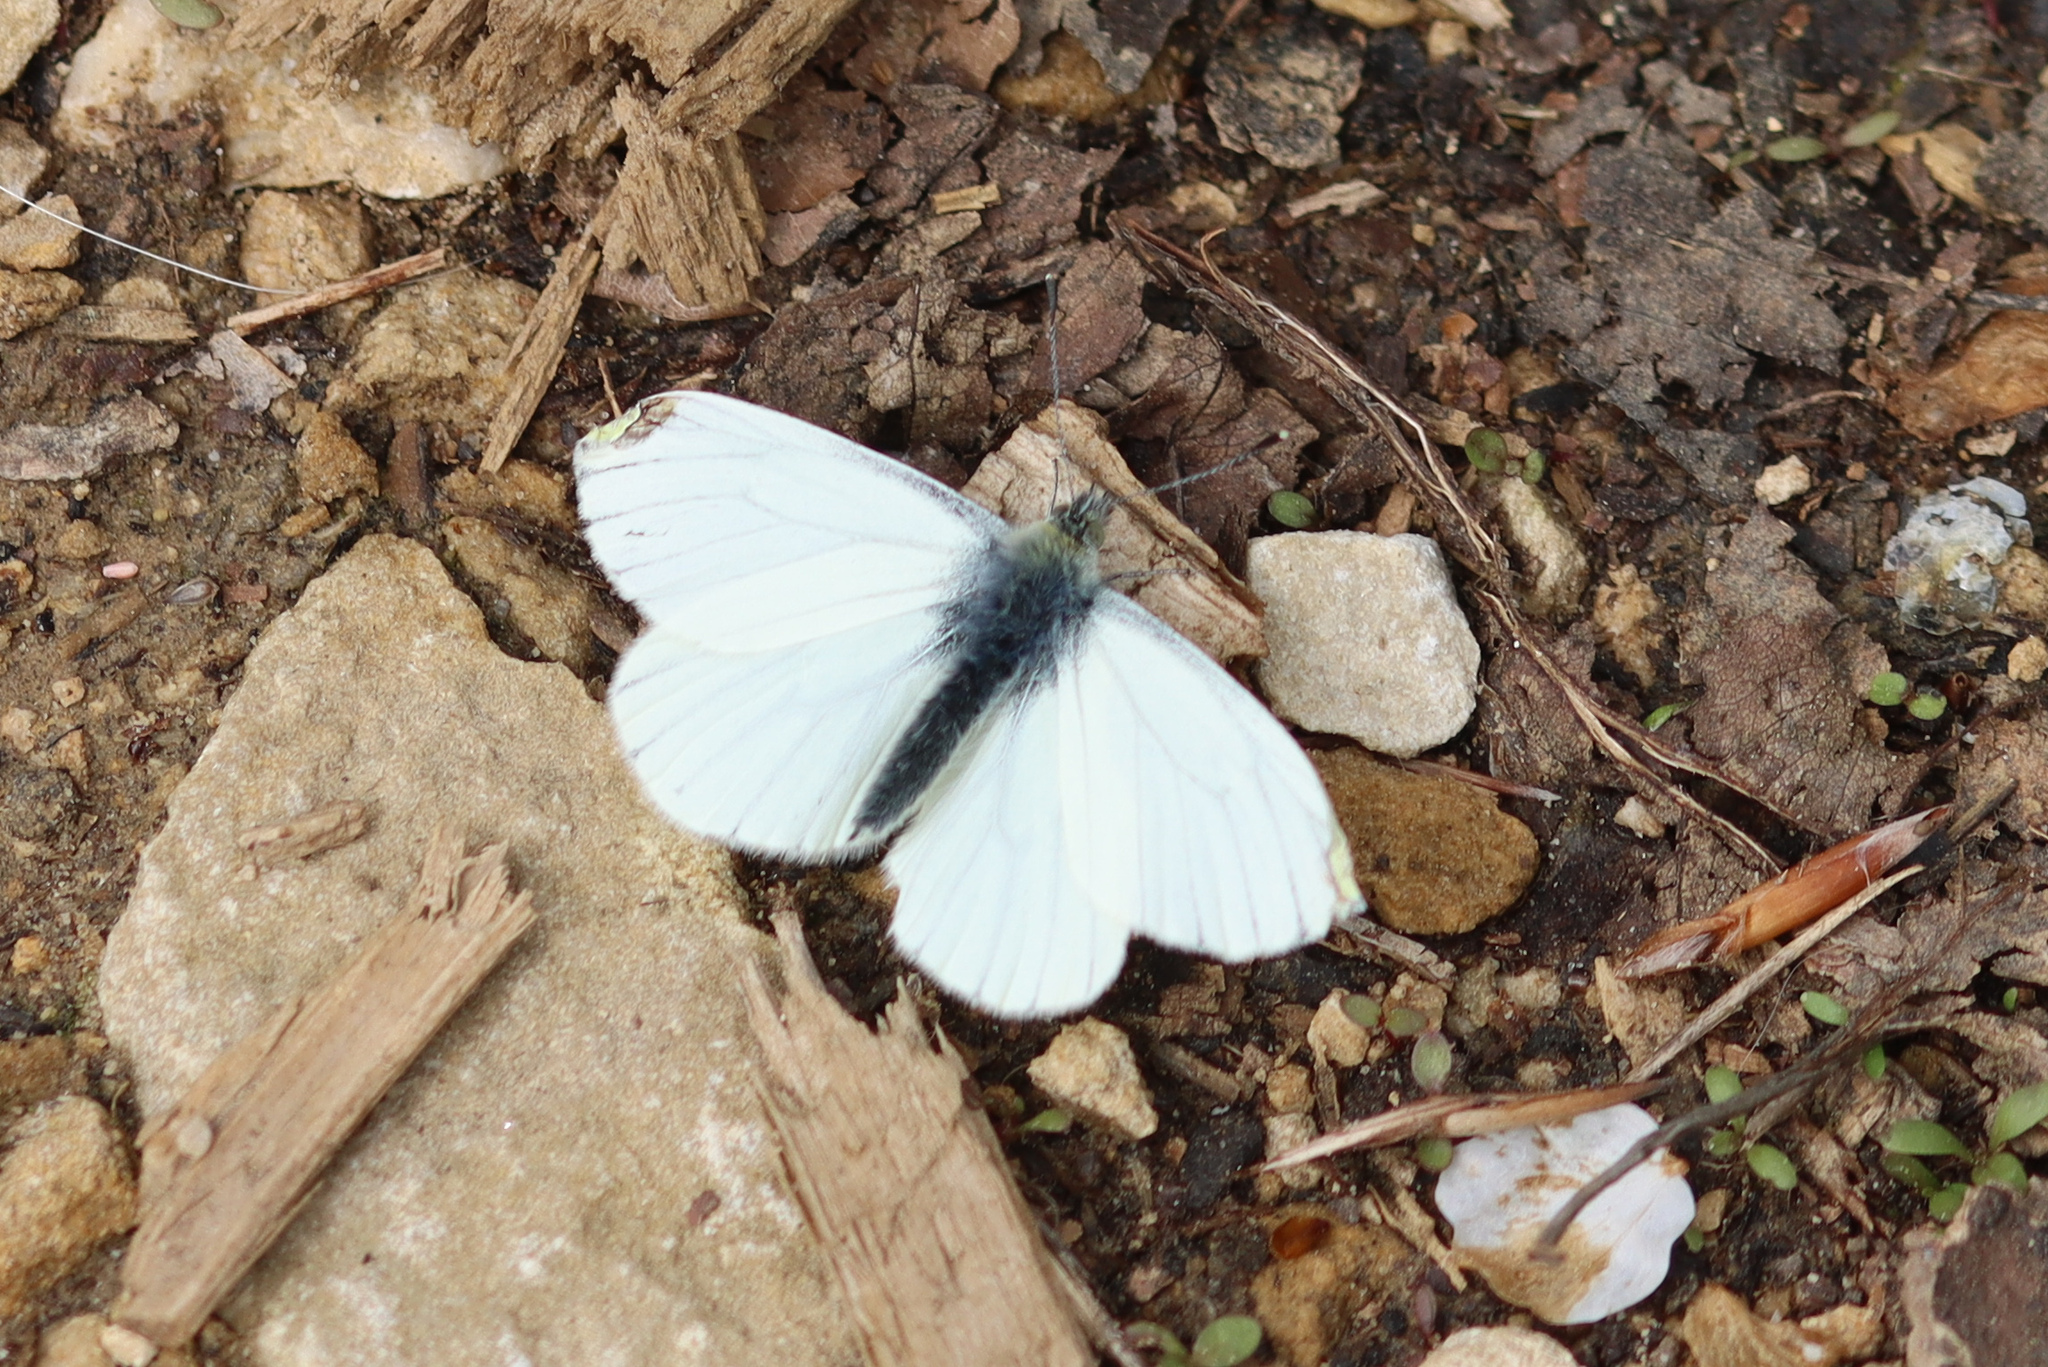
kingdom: Animalia
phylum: Arthropoda
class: Insecta
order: Lepidoptera
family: Pieridae
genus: Pieris
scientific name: Pieris napi
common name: Green-veined white
